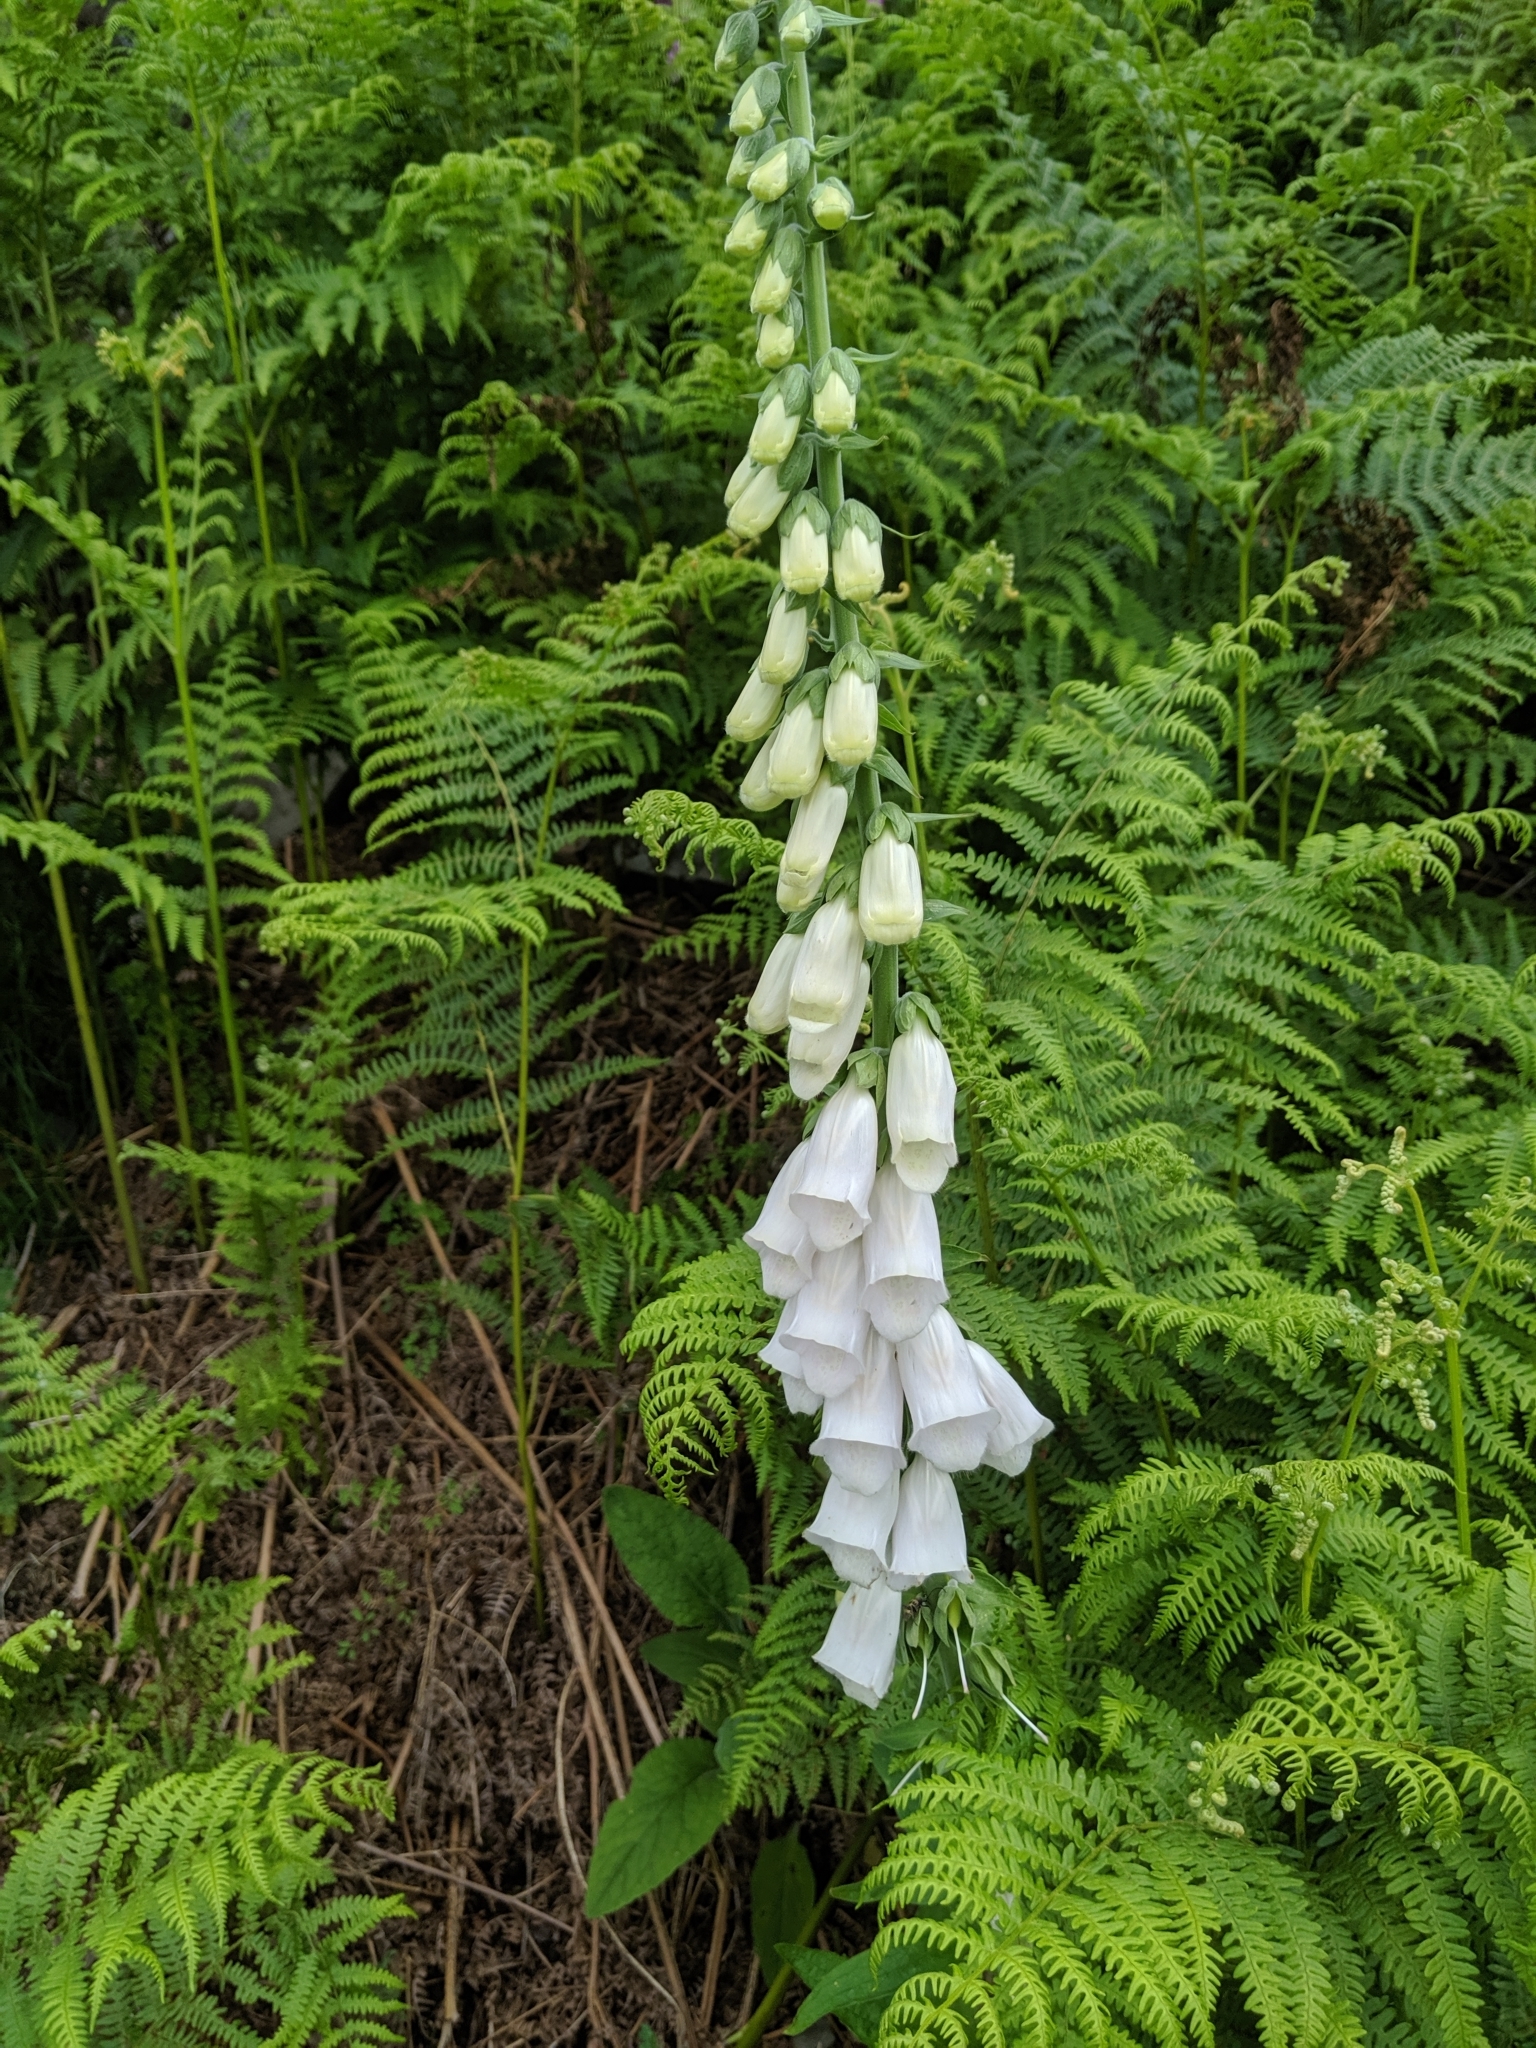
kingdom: Plantae
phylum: Tracheophyta
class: Magnoliopsida
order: Lamiales
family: Plantaginaceae
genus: Digitalis
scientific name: Digitalis purpurea
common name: Foxglove
